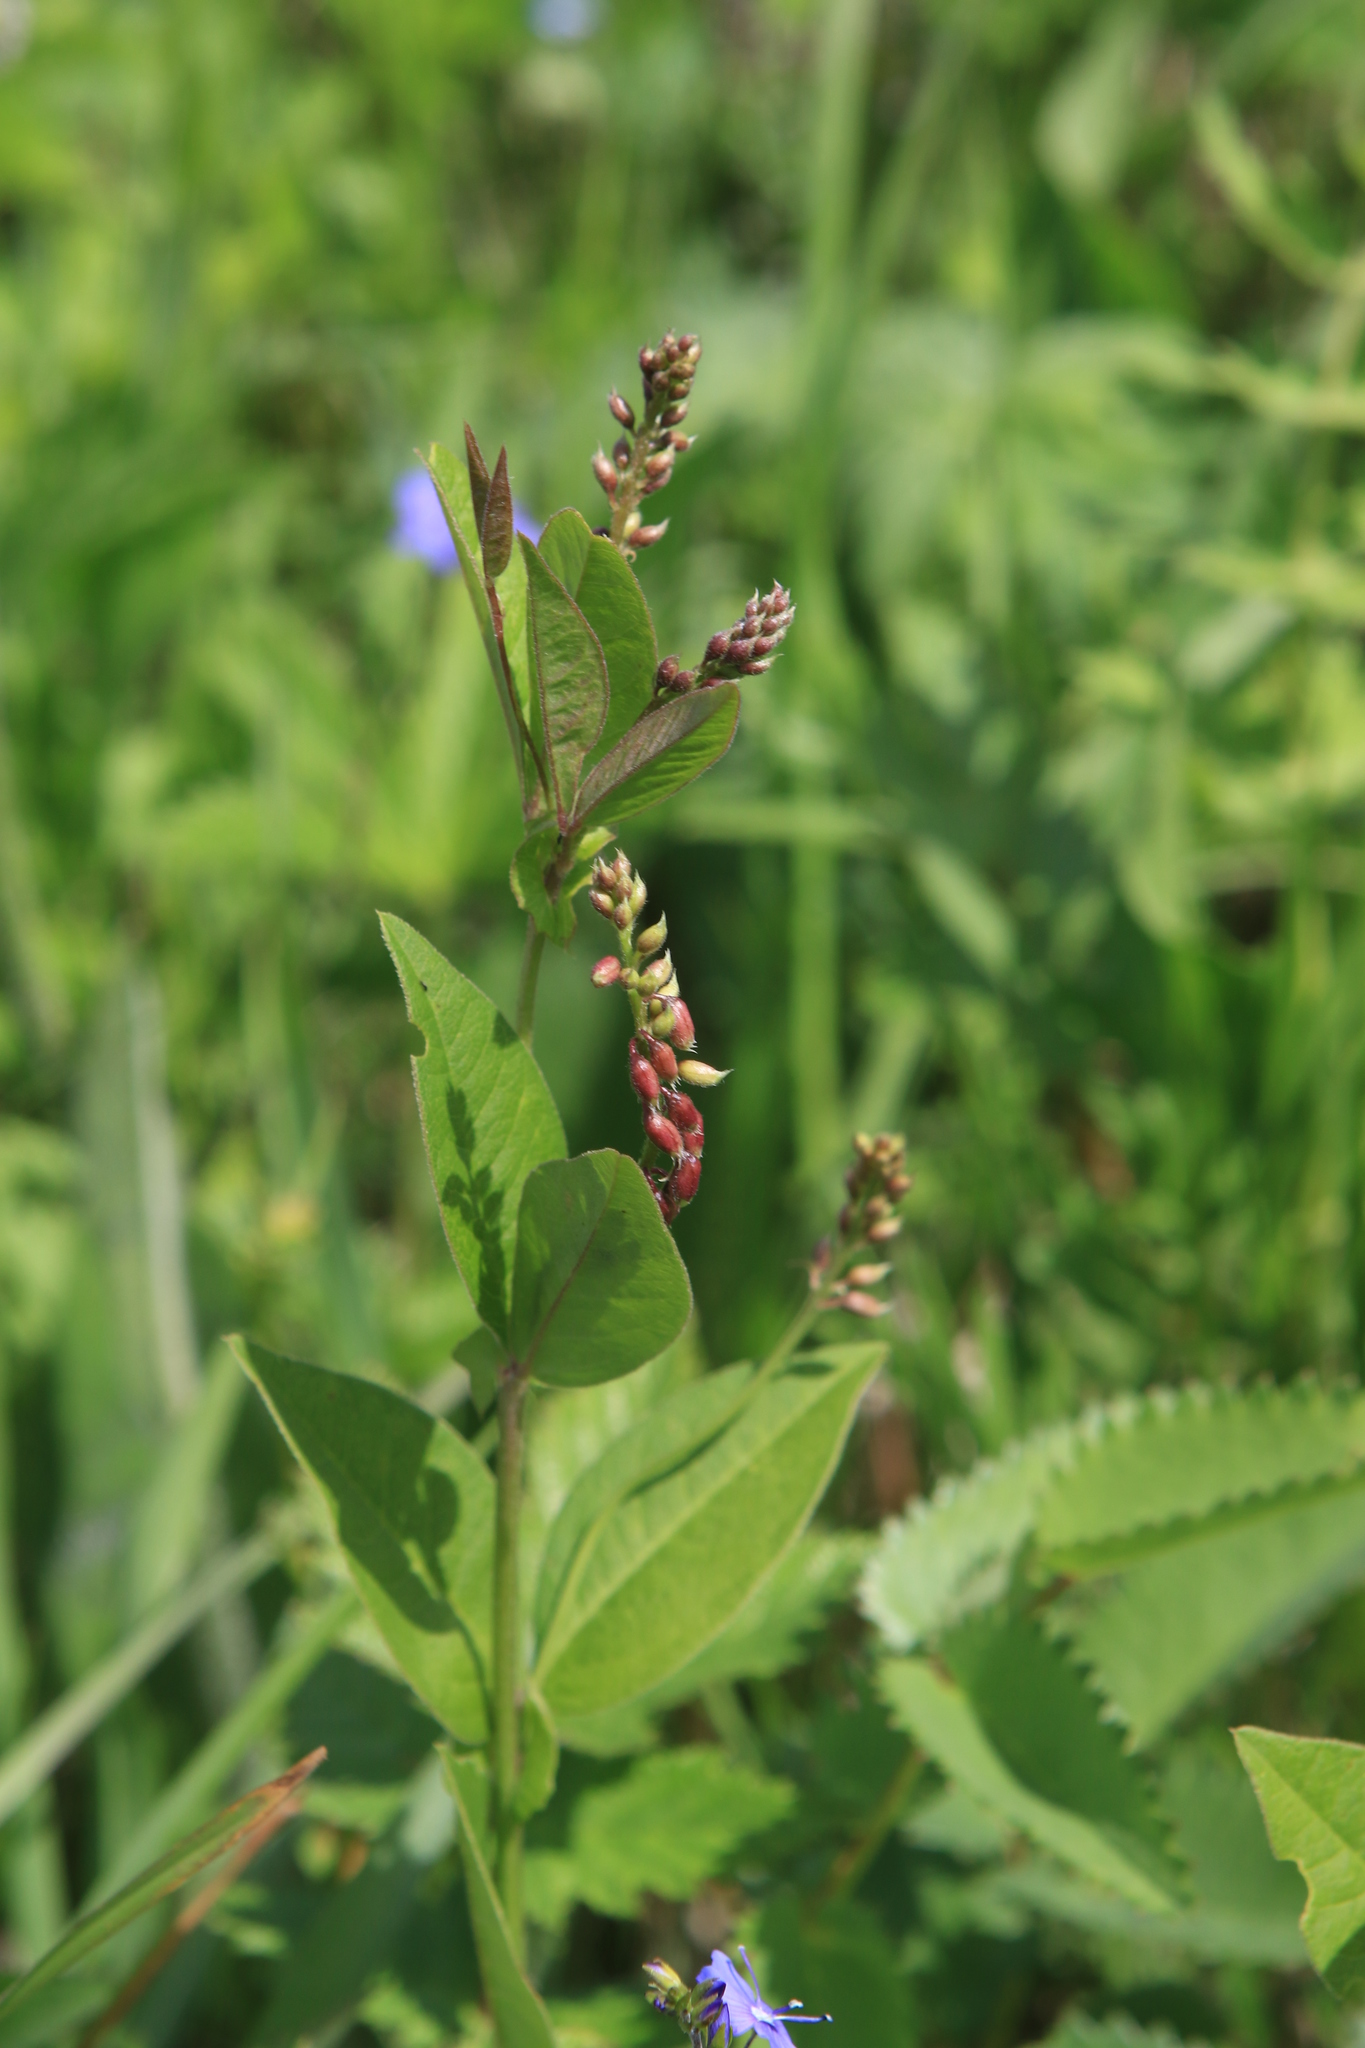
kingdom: Plantae
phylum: Tracheophyta
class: Magnoliopsida
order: Fabales
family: Fabaceae
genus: Vicia
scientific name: Vicia unijuga
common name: Two-leaf vetch
